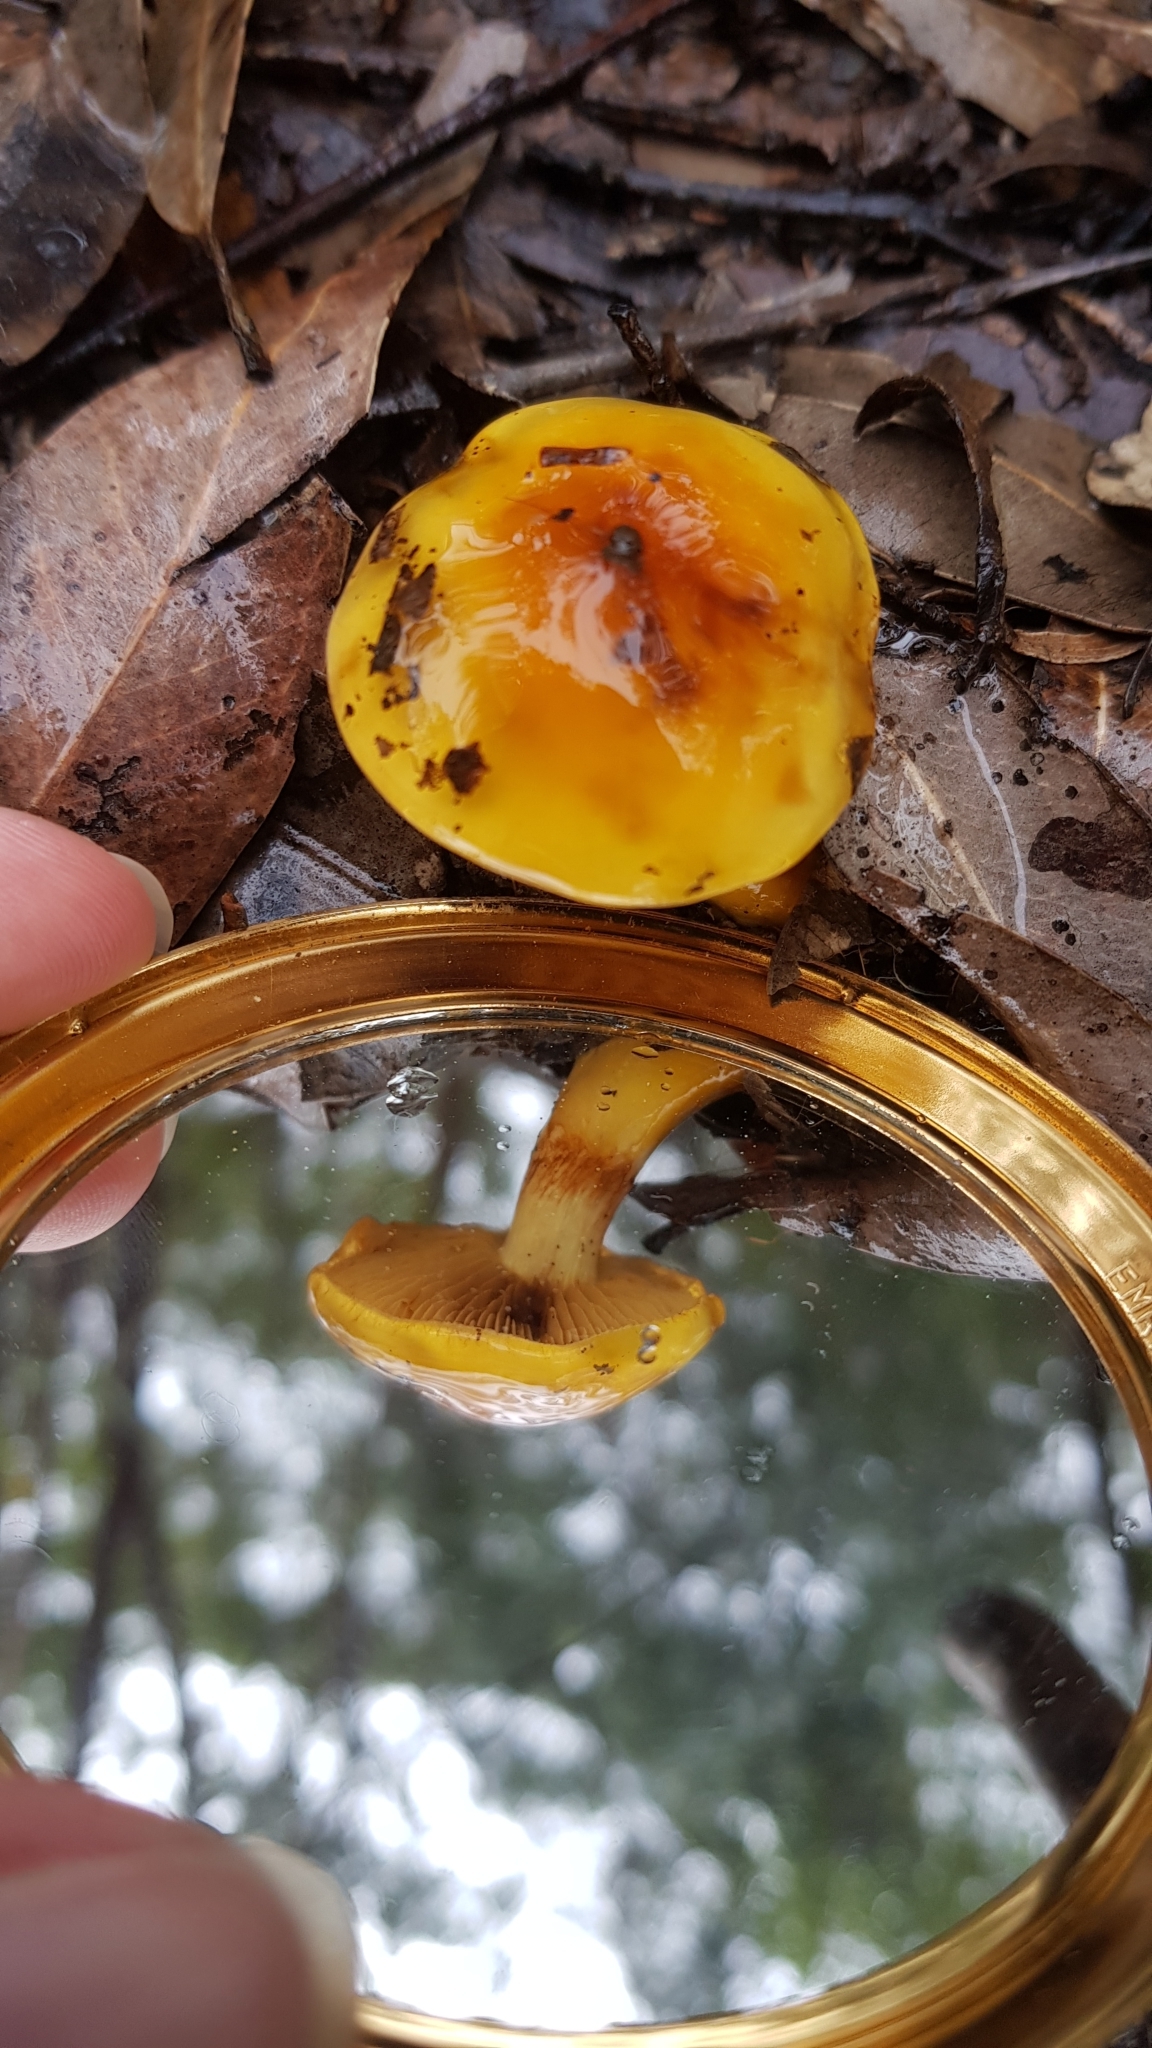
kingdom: Fungi
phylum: Basidiomycota
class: Agaricomycetes
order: Agaricales
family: Cortinariaceae
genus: Cortinarius
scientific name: Cortinarius sinapicolor
